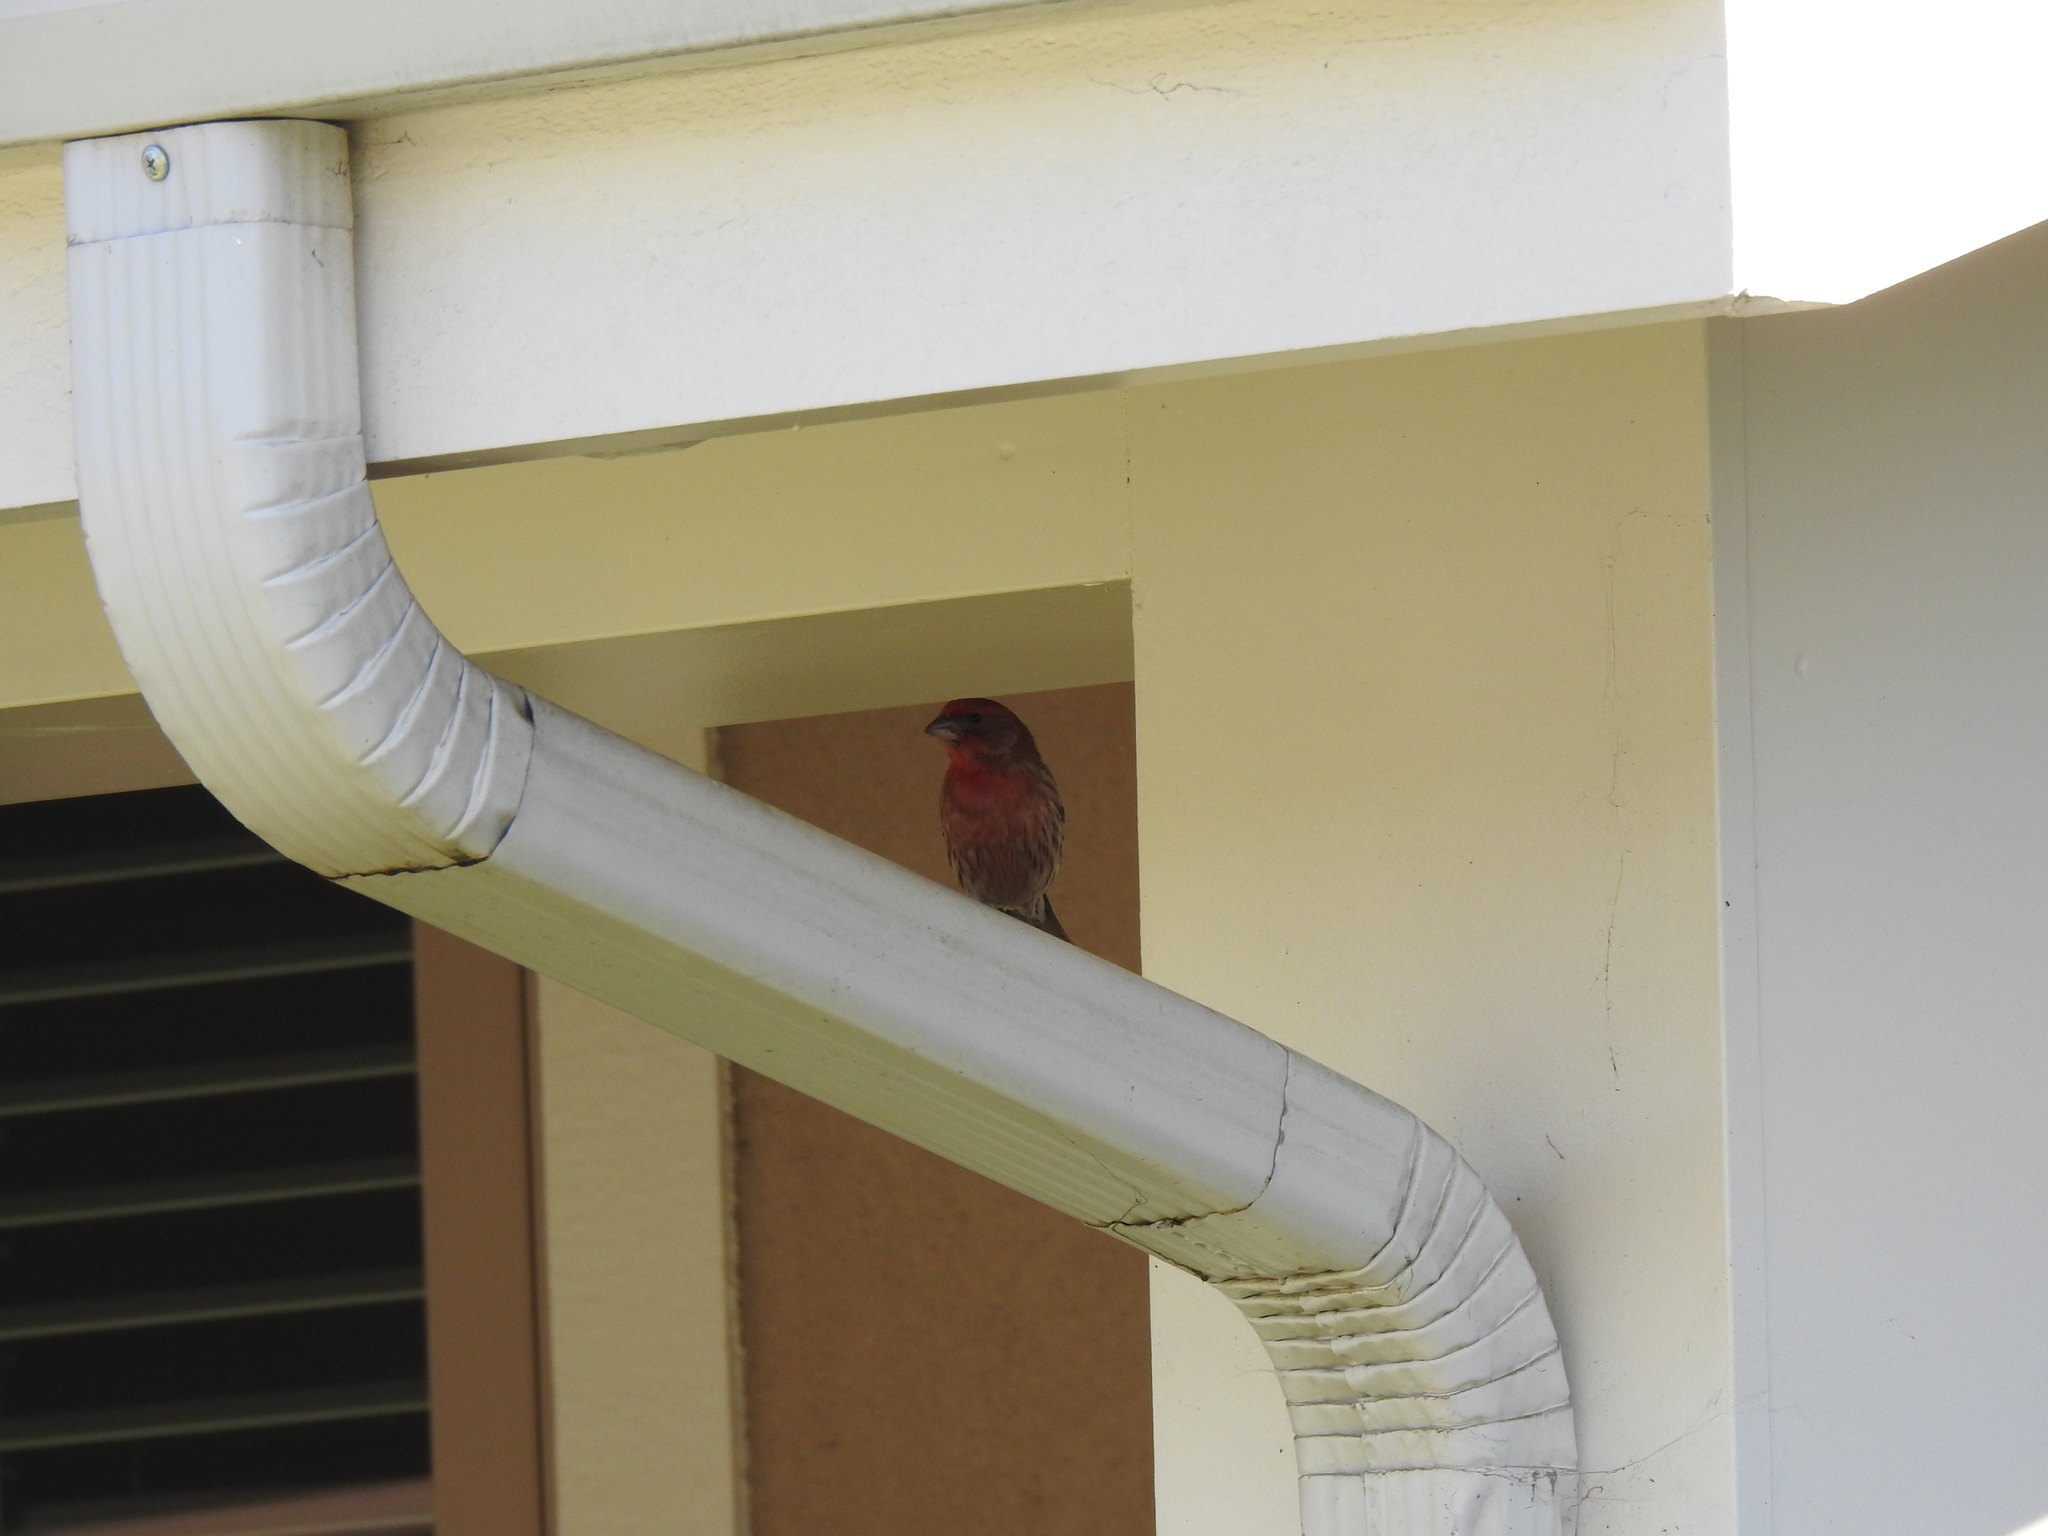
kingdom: Animalia
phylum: Chordata
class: Aves
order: Passeriformes
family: Fringillidae
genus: Haemorhous
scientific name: Haemorhous mexicanus
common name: House finch
